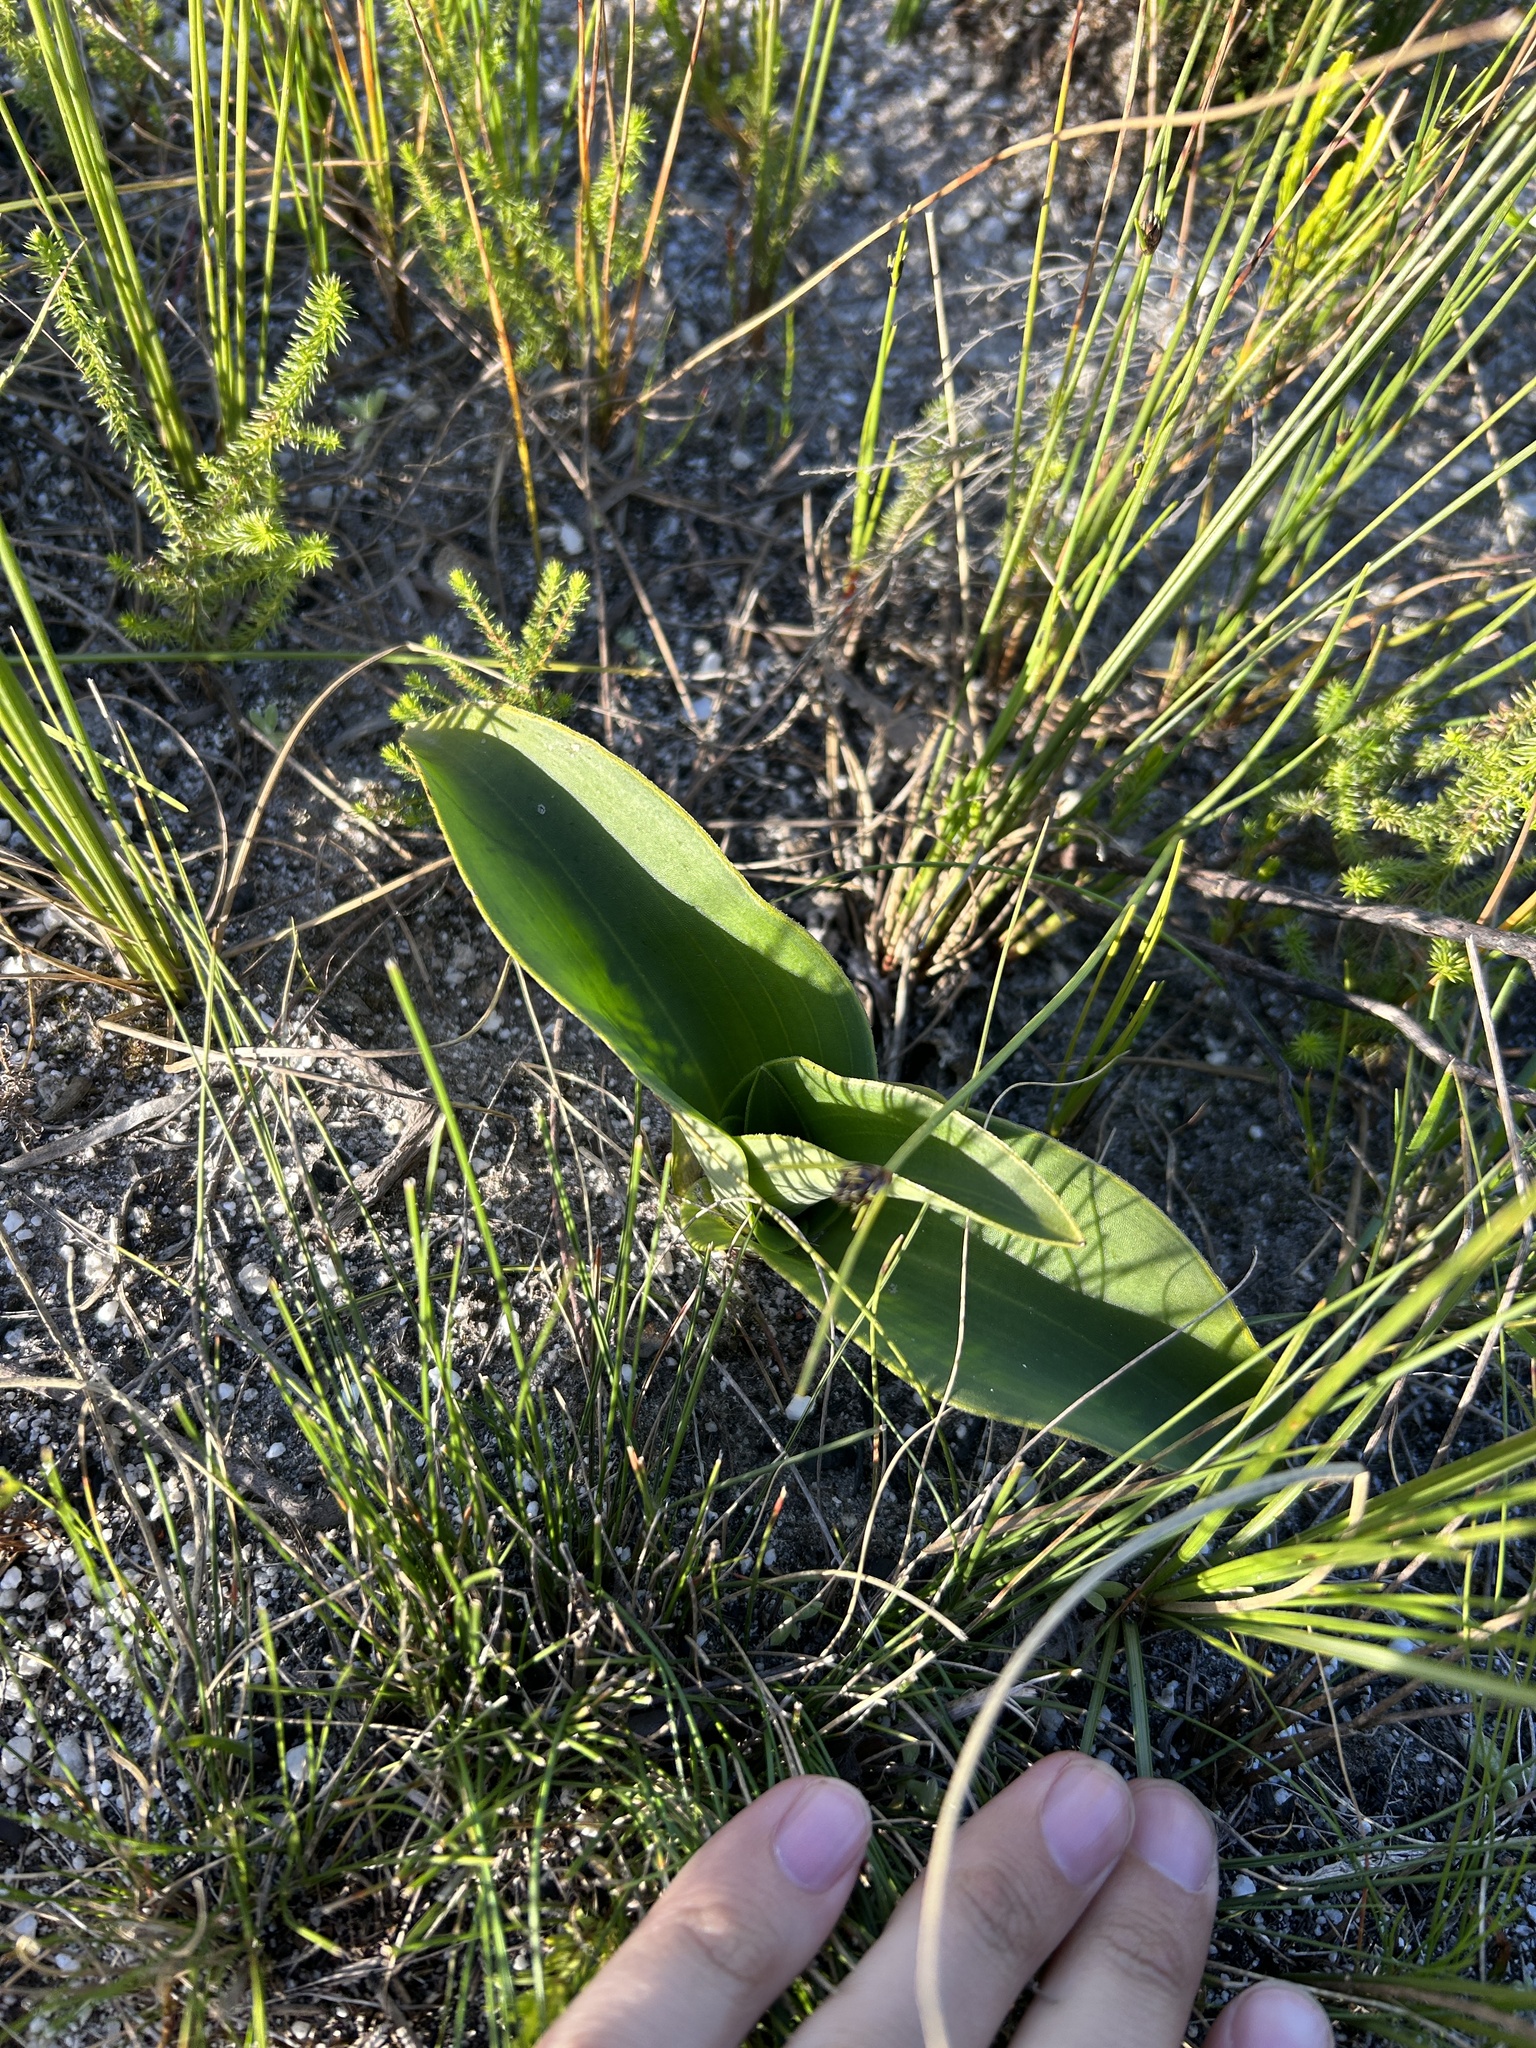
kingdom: Plantae
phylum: Tracheophyta
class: Liliopsida
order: Asparagales
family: Orchidaceae
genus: Satyrium
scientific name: Satyrium coriifolium
